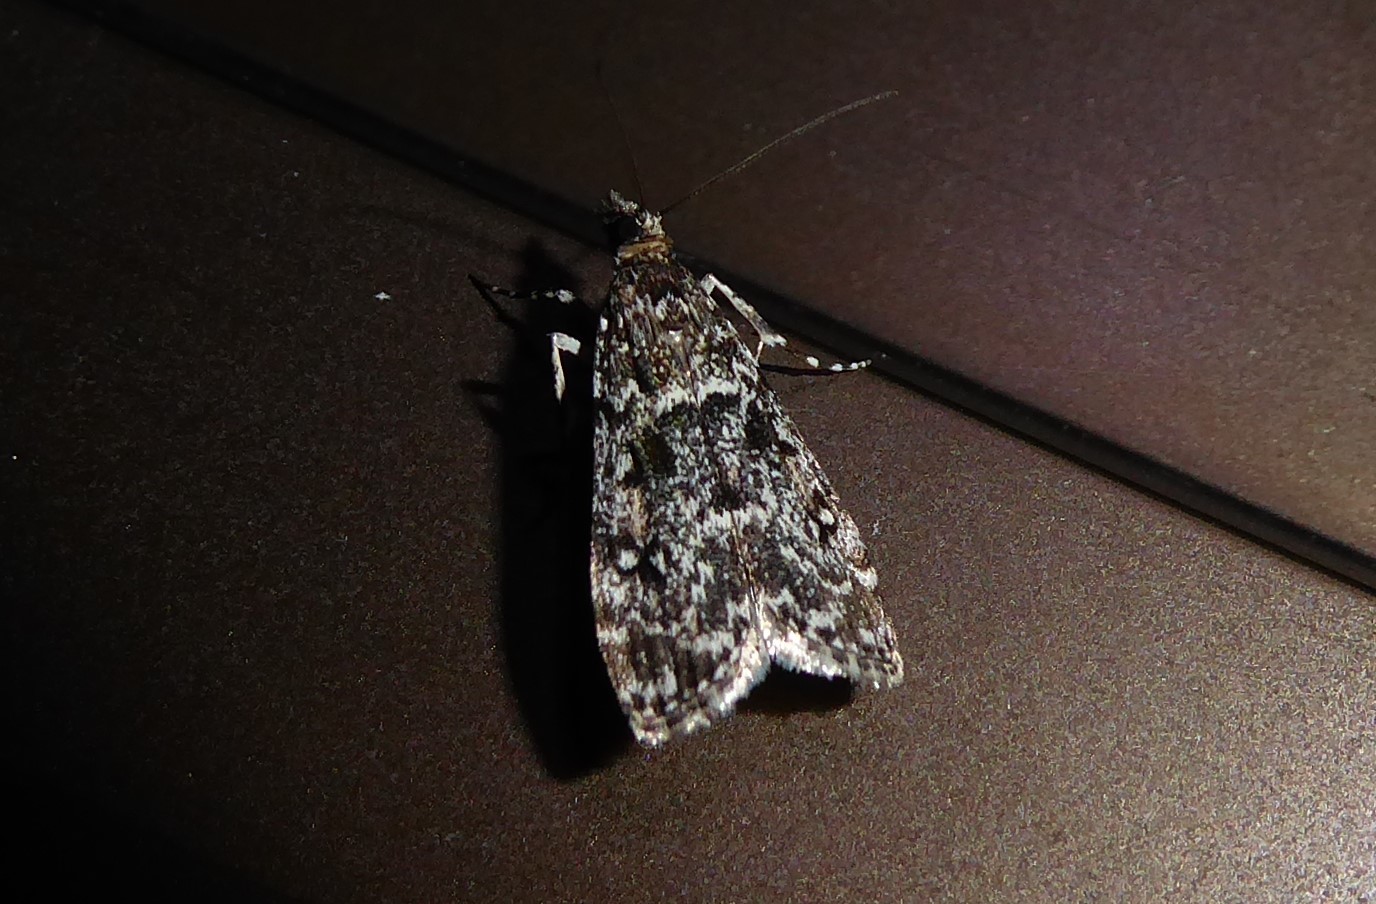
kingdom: Animalia
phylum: Arthropoda
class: Insecta
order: Lepidoptera
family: Crambidae
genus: Eudonia
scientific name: Eudonia philerga
